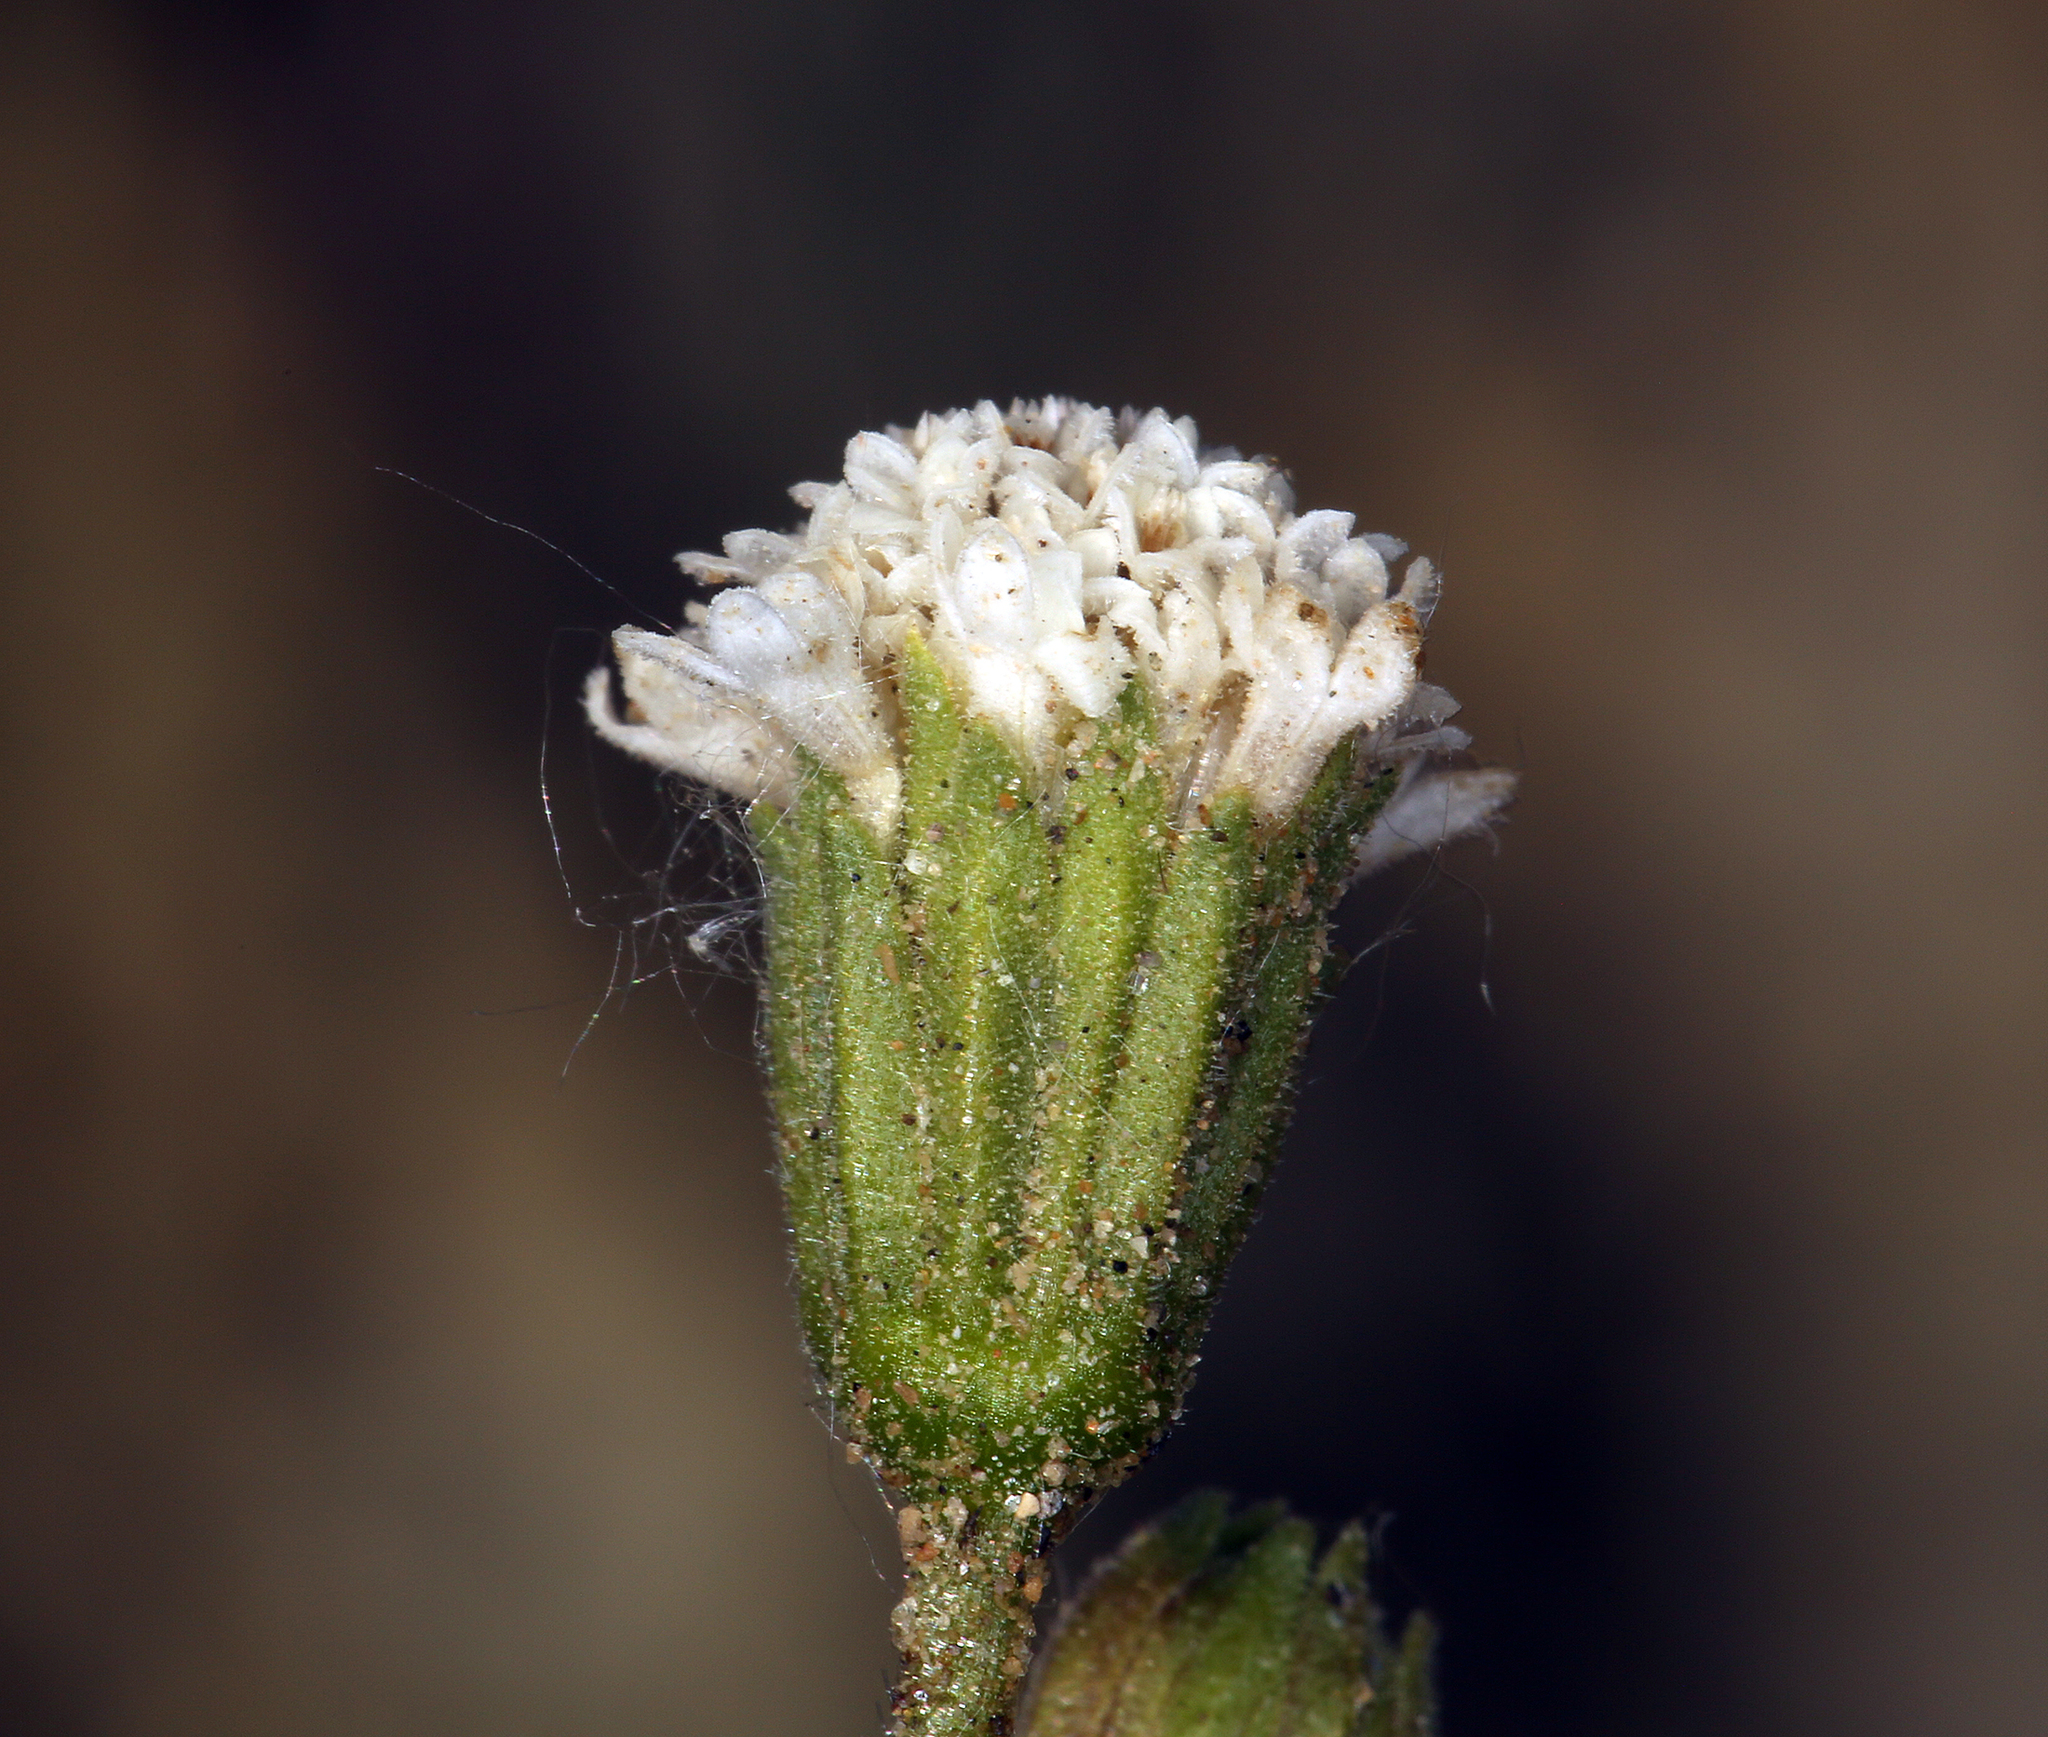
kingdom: Plantae
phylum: Tracheophyta
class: Magnoliopsida
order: Asterales
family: Asteraceae
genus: Chaenactis
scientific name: Chaenactis stevioides
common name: Desert pincushion
